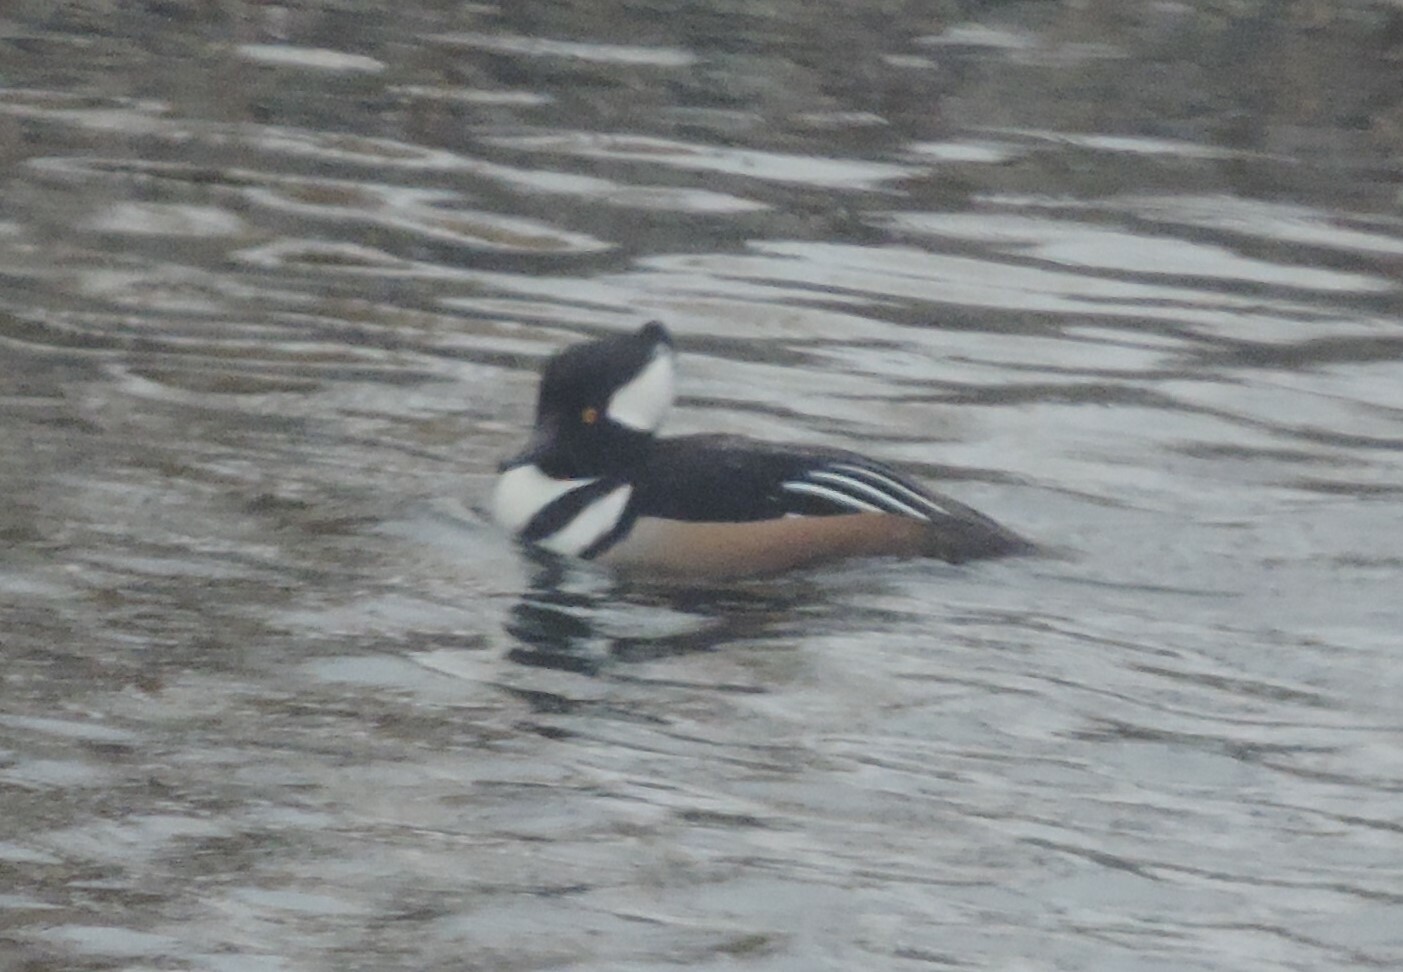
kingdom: Animalia
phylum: Chordata
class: Aves
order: Anseriformes
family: Anatidae
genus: Lophodytes
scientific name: Lophodytes cucullatus
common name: Hooded merganser
